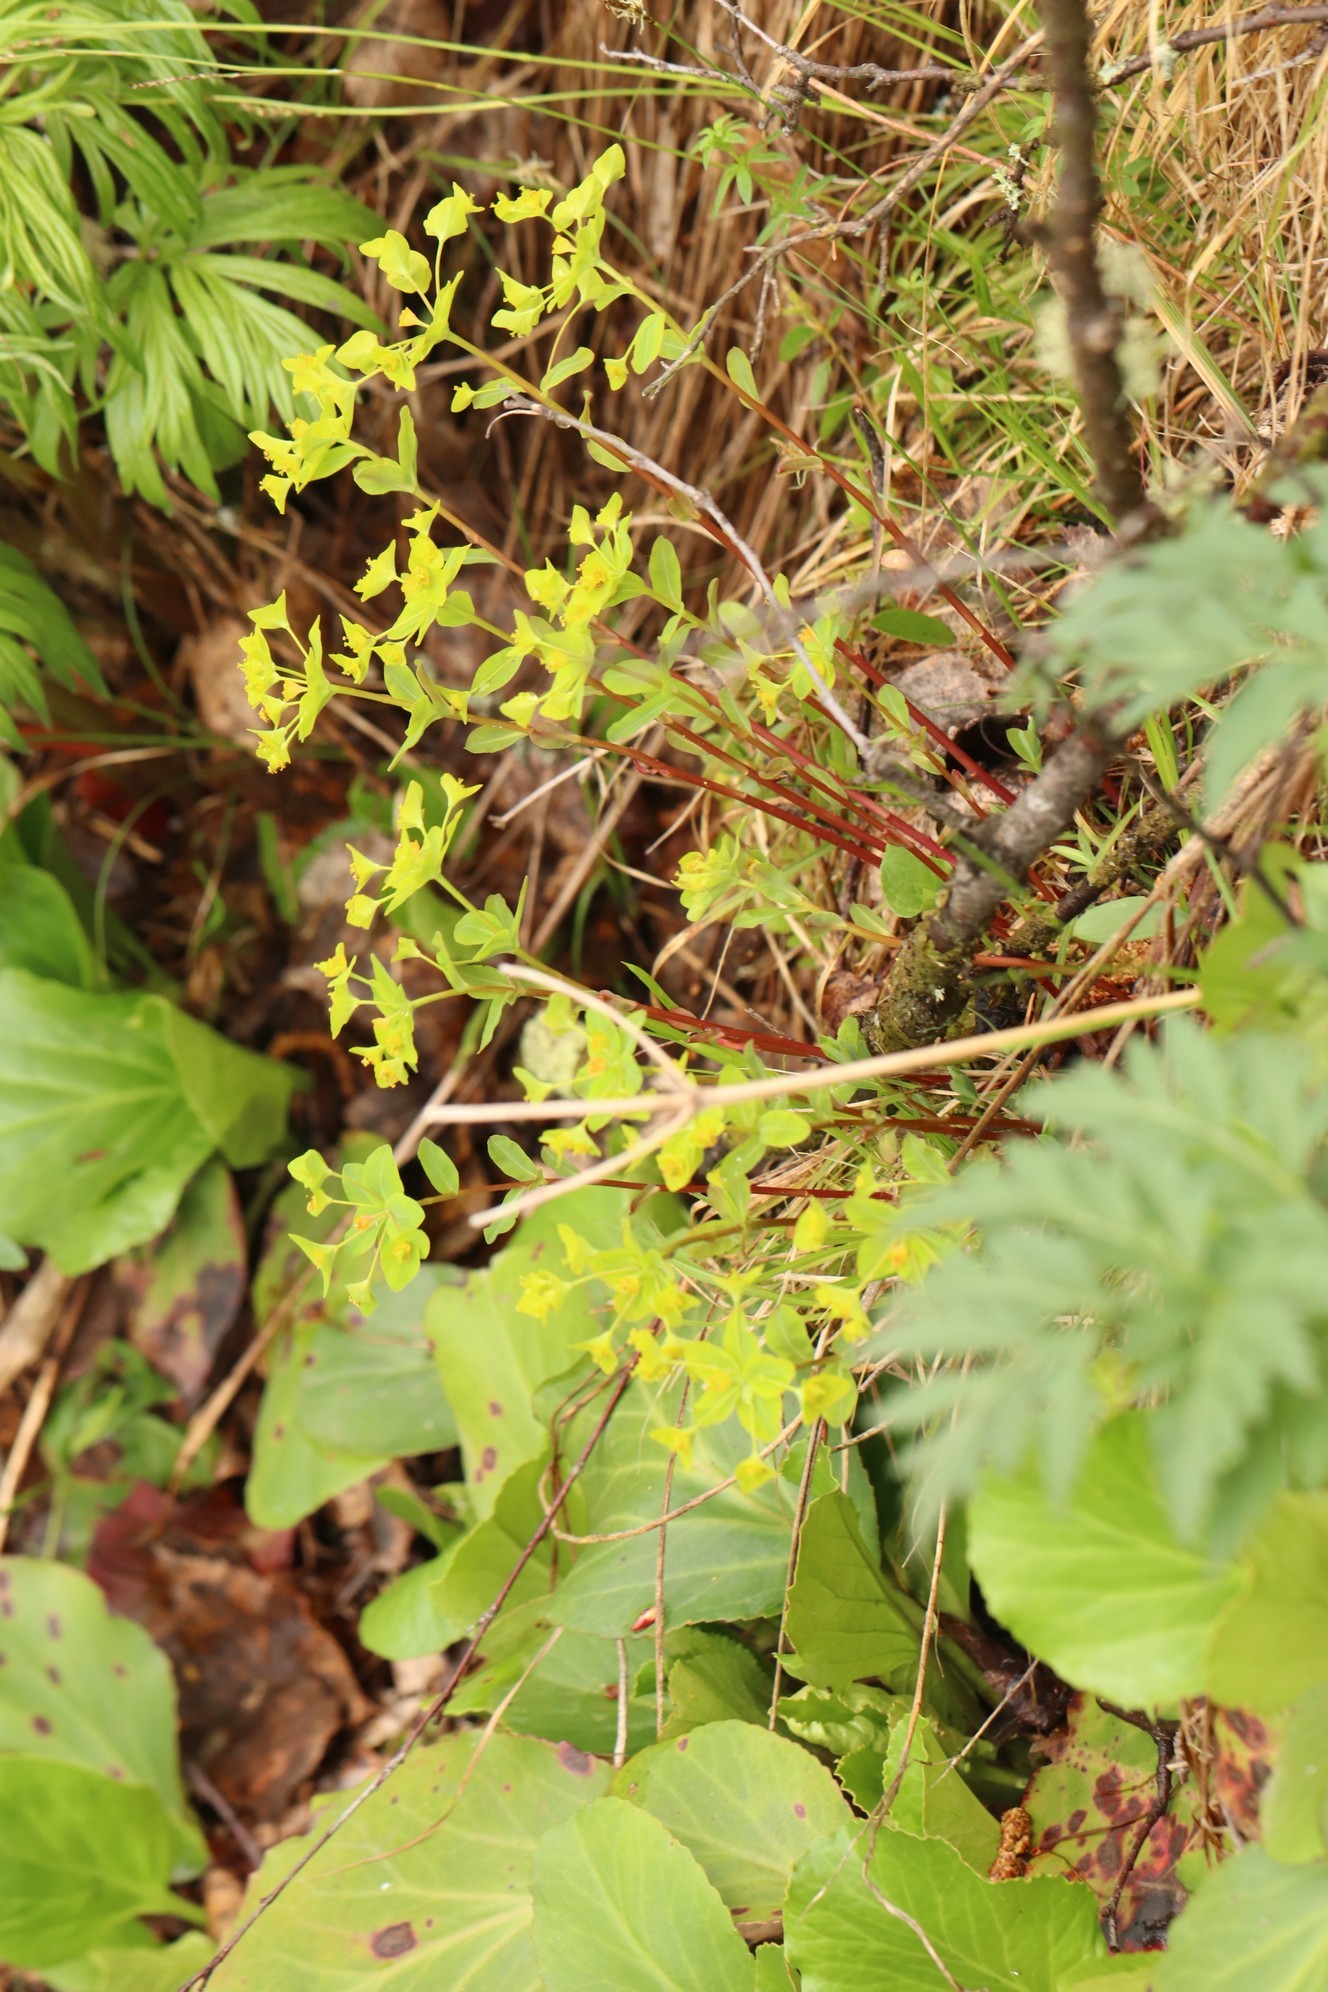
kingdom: Plantae
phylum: Tracheophyta
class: Magnoliopsida
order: Malpighiales
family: Euphorbiaceae
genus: Euphorbia
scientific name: Euphorbia altaica
